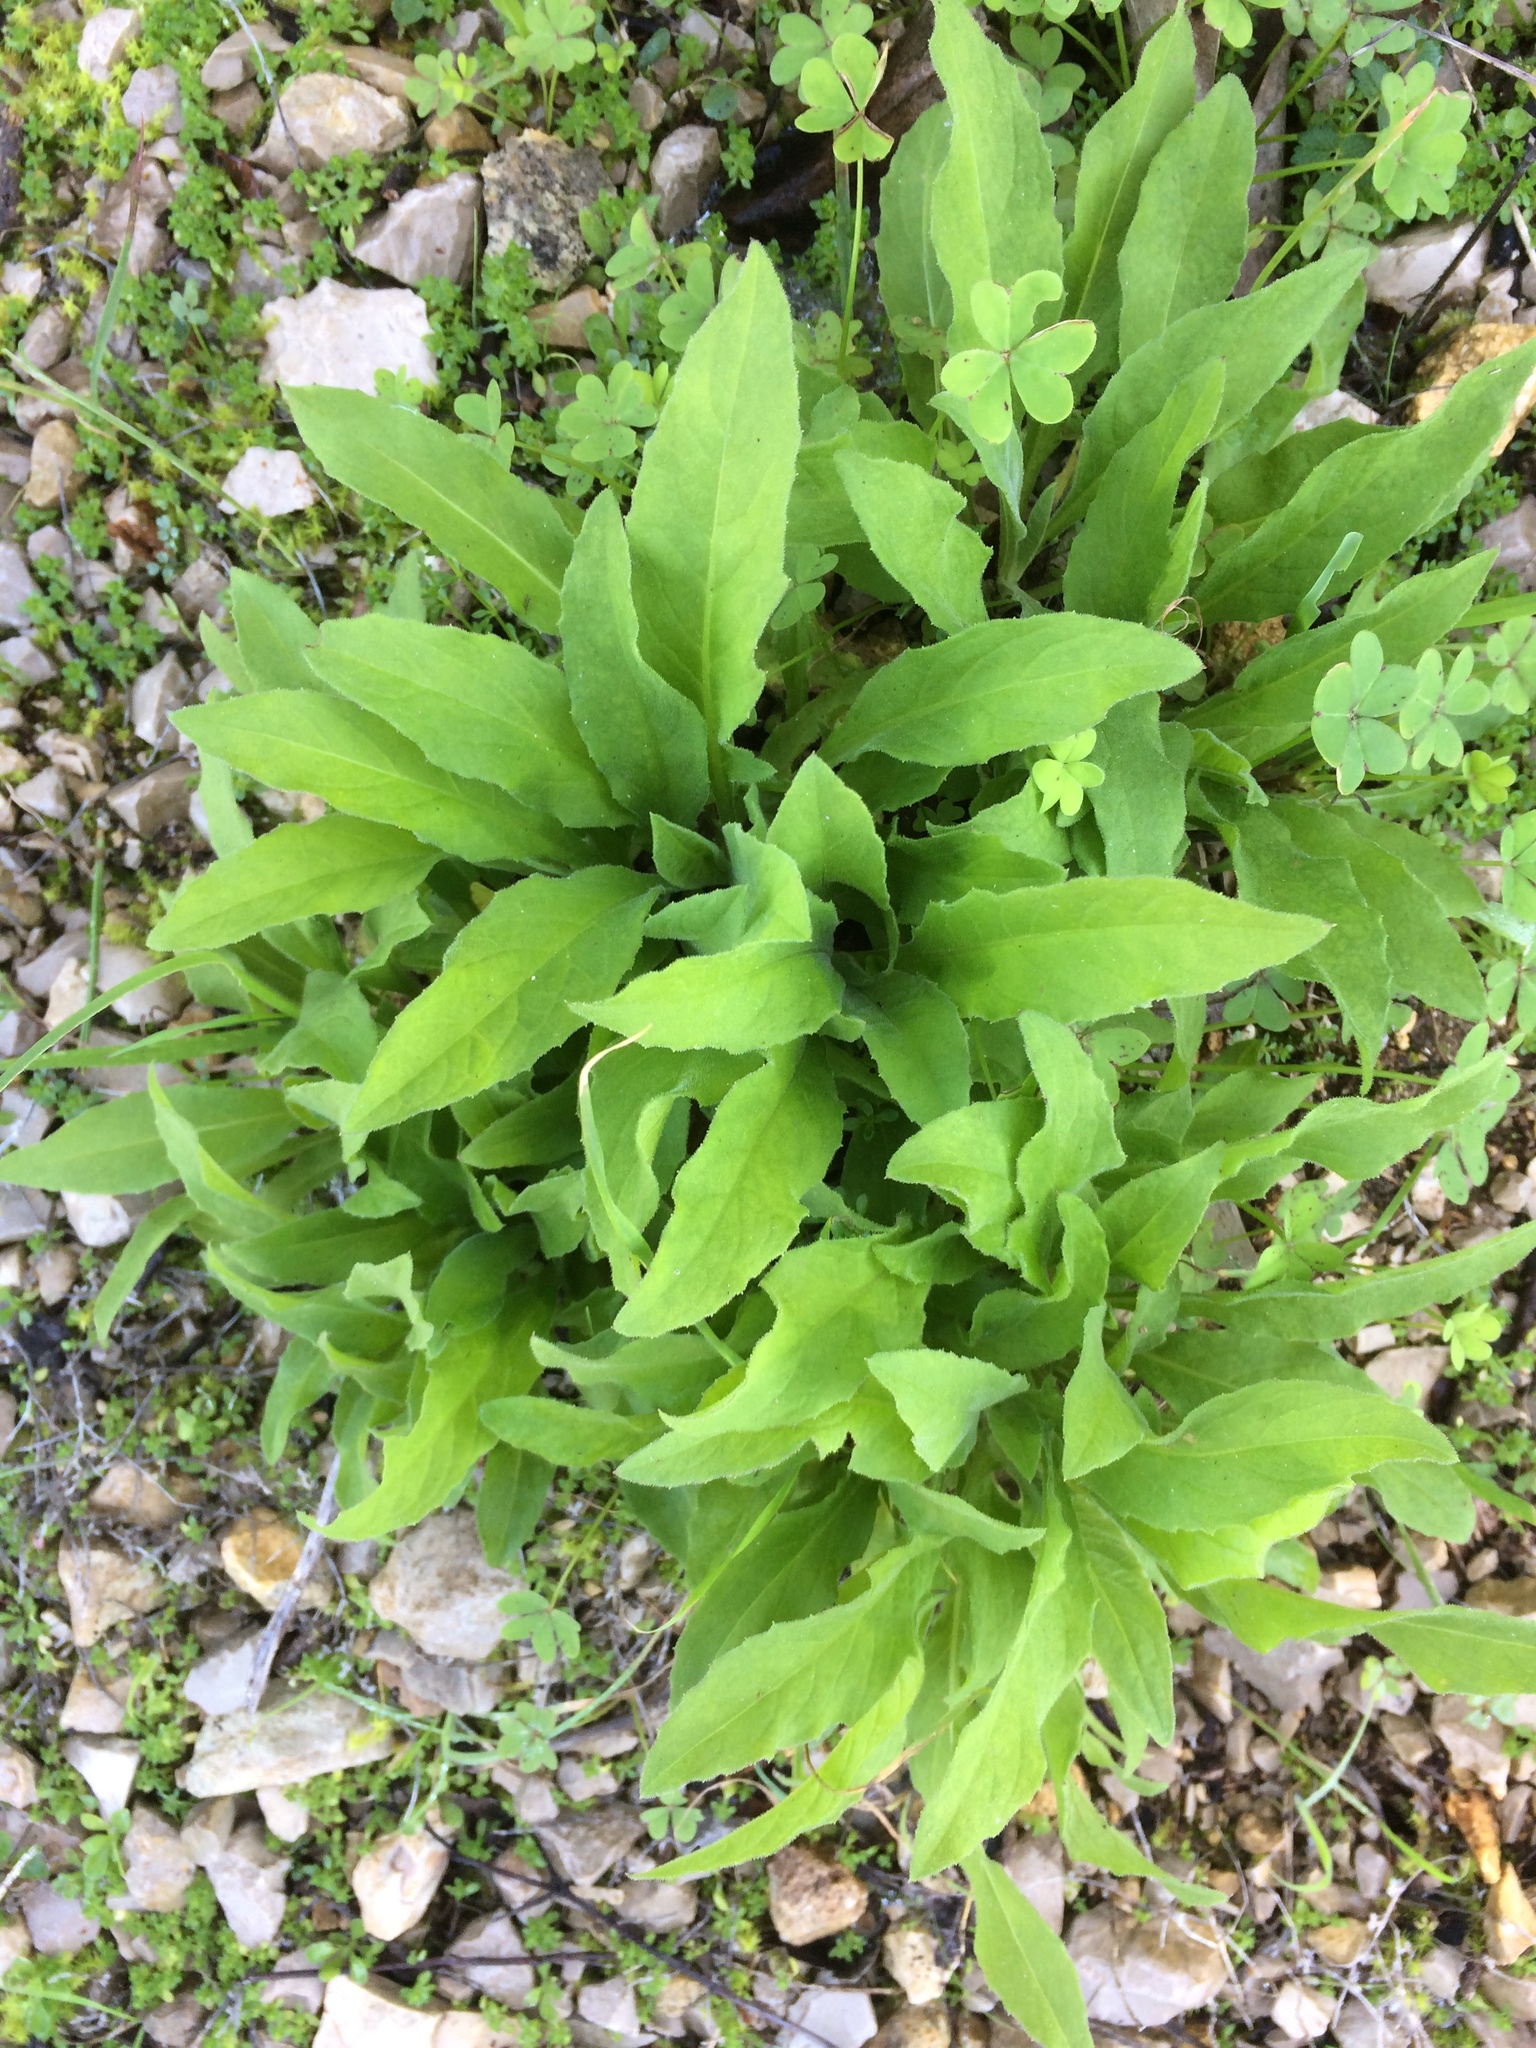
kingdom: Plantae
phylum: Tracheophyta
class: Magnoliopsida
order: Asterales
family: Asteraceae
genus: Cheirolophus
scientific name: Cheirolophus sempervirens
